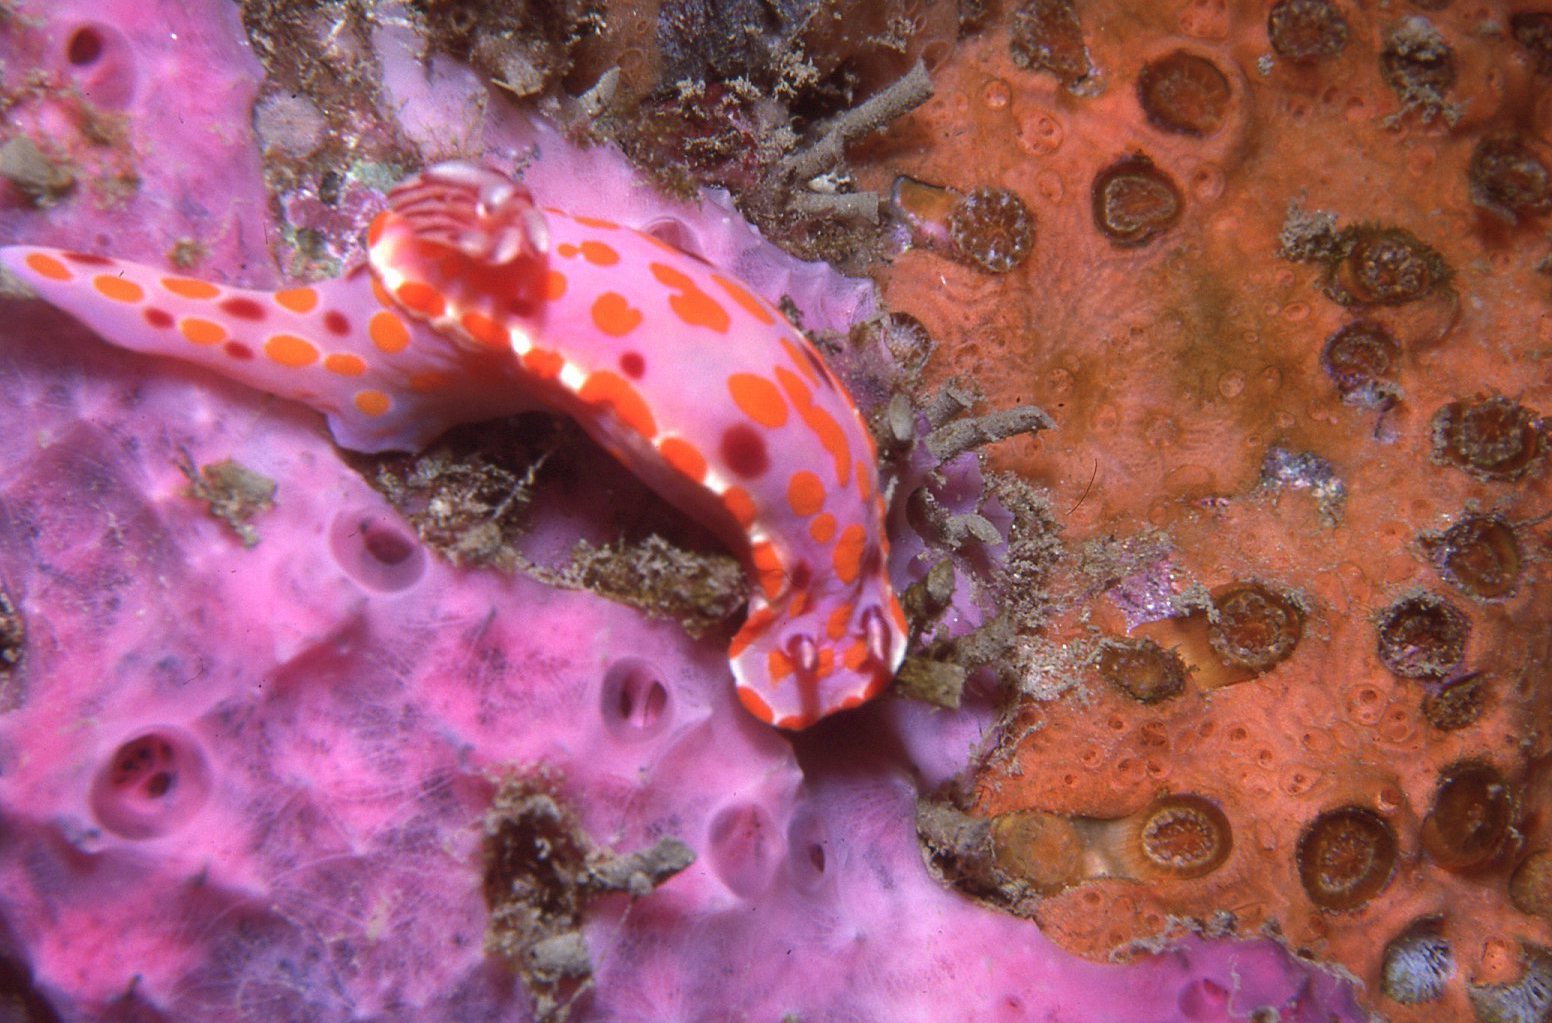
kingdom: Animalia
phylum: Mollusca
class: Gastropoda
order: Nudibranchia
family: Chromodorididae
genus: Ceratosoma
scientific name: Ceratosoma amoenum
